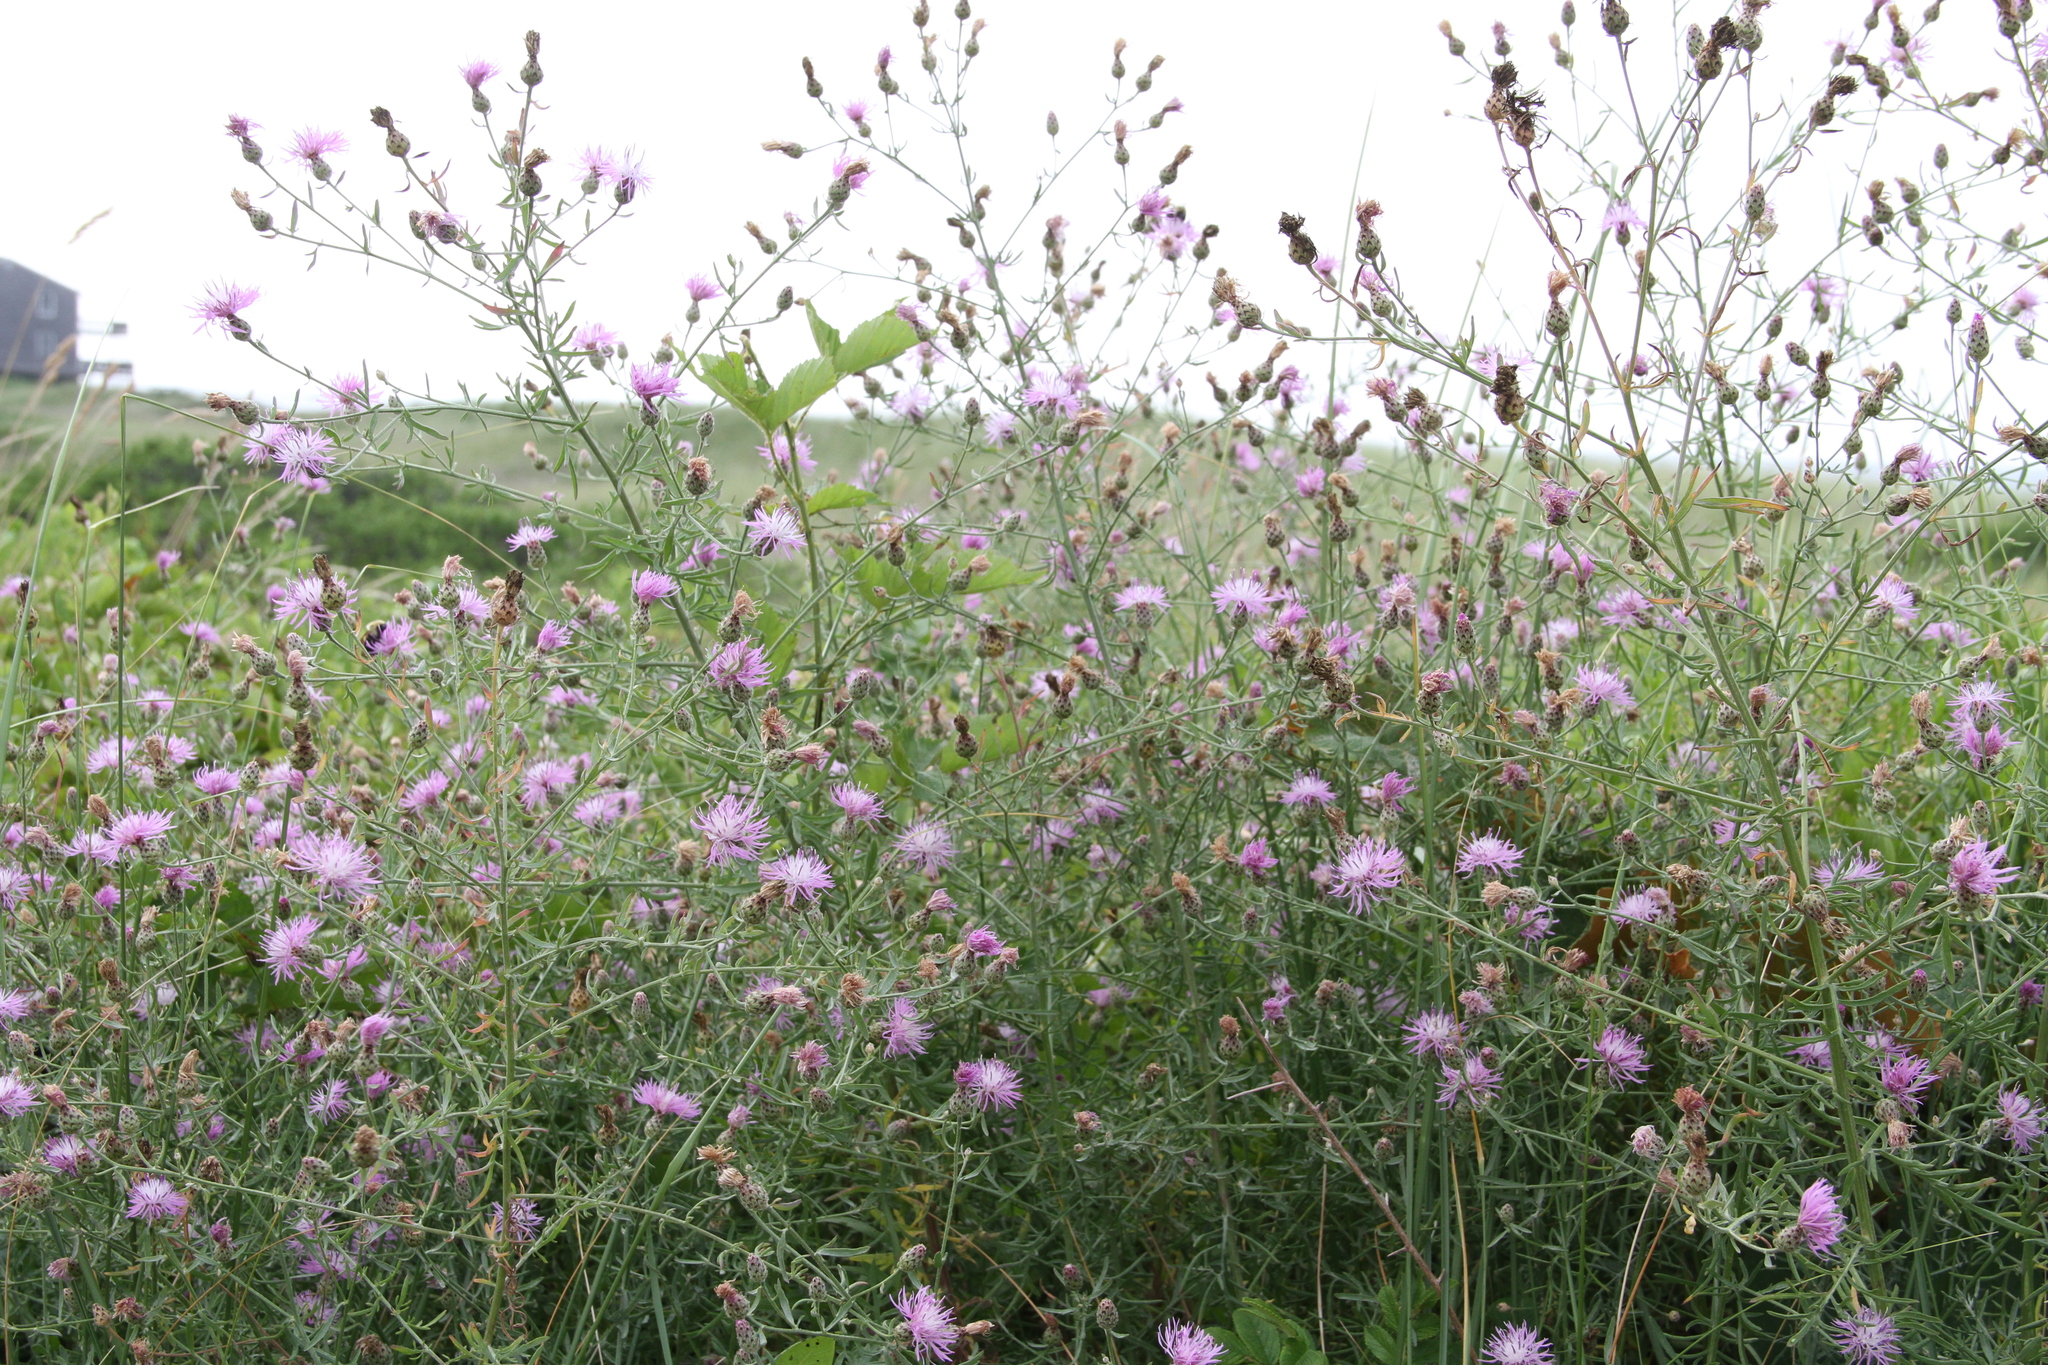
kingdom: Plantae
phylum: Tracheophyta
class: Magnoliopsida
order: Asterales
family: Asteraceae
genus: Centaurea
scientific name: Centaurea stoebe
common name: Spotted knapweed
